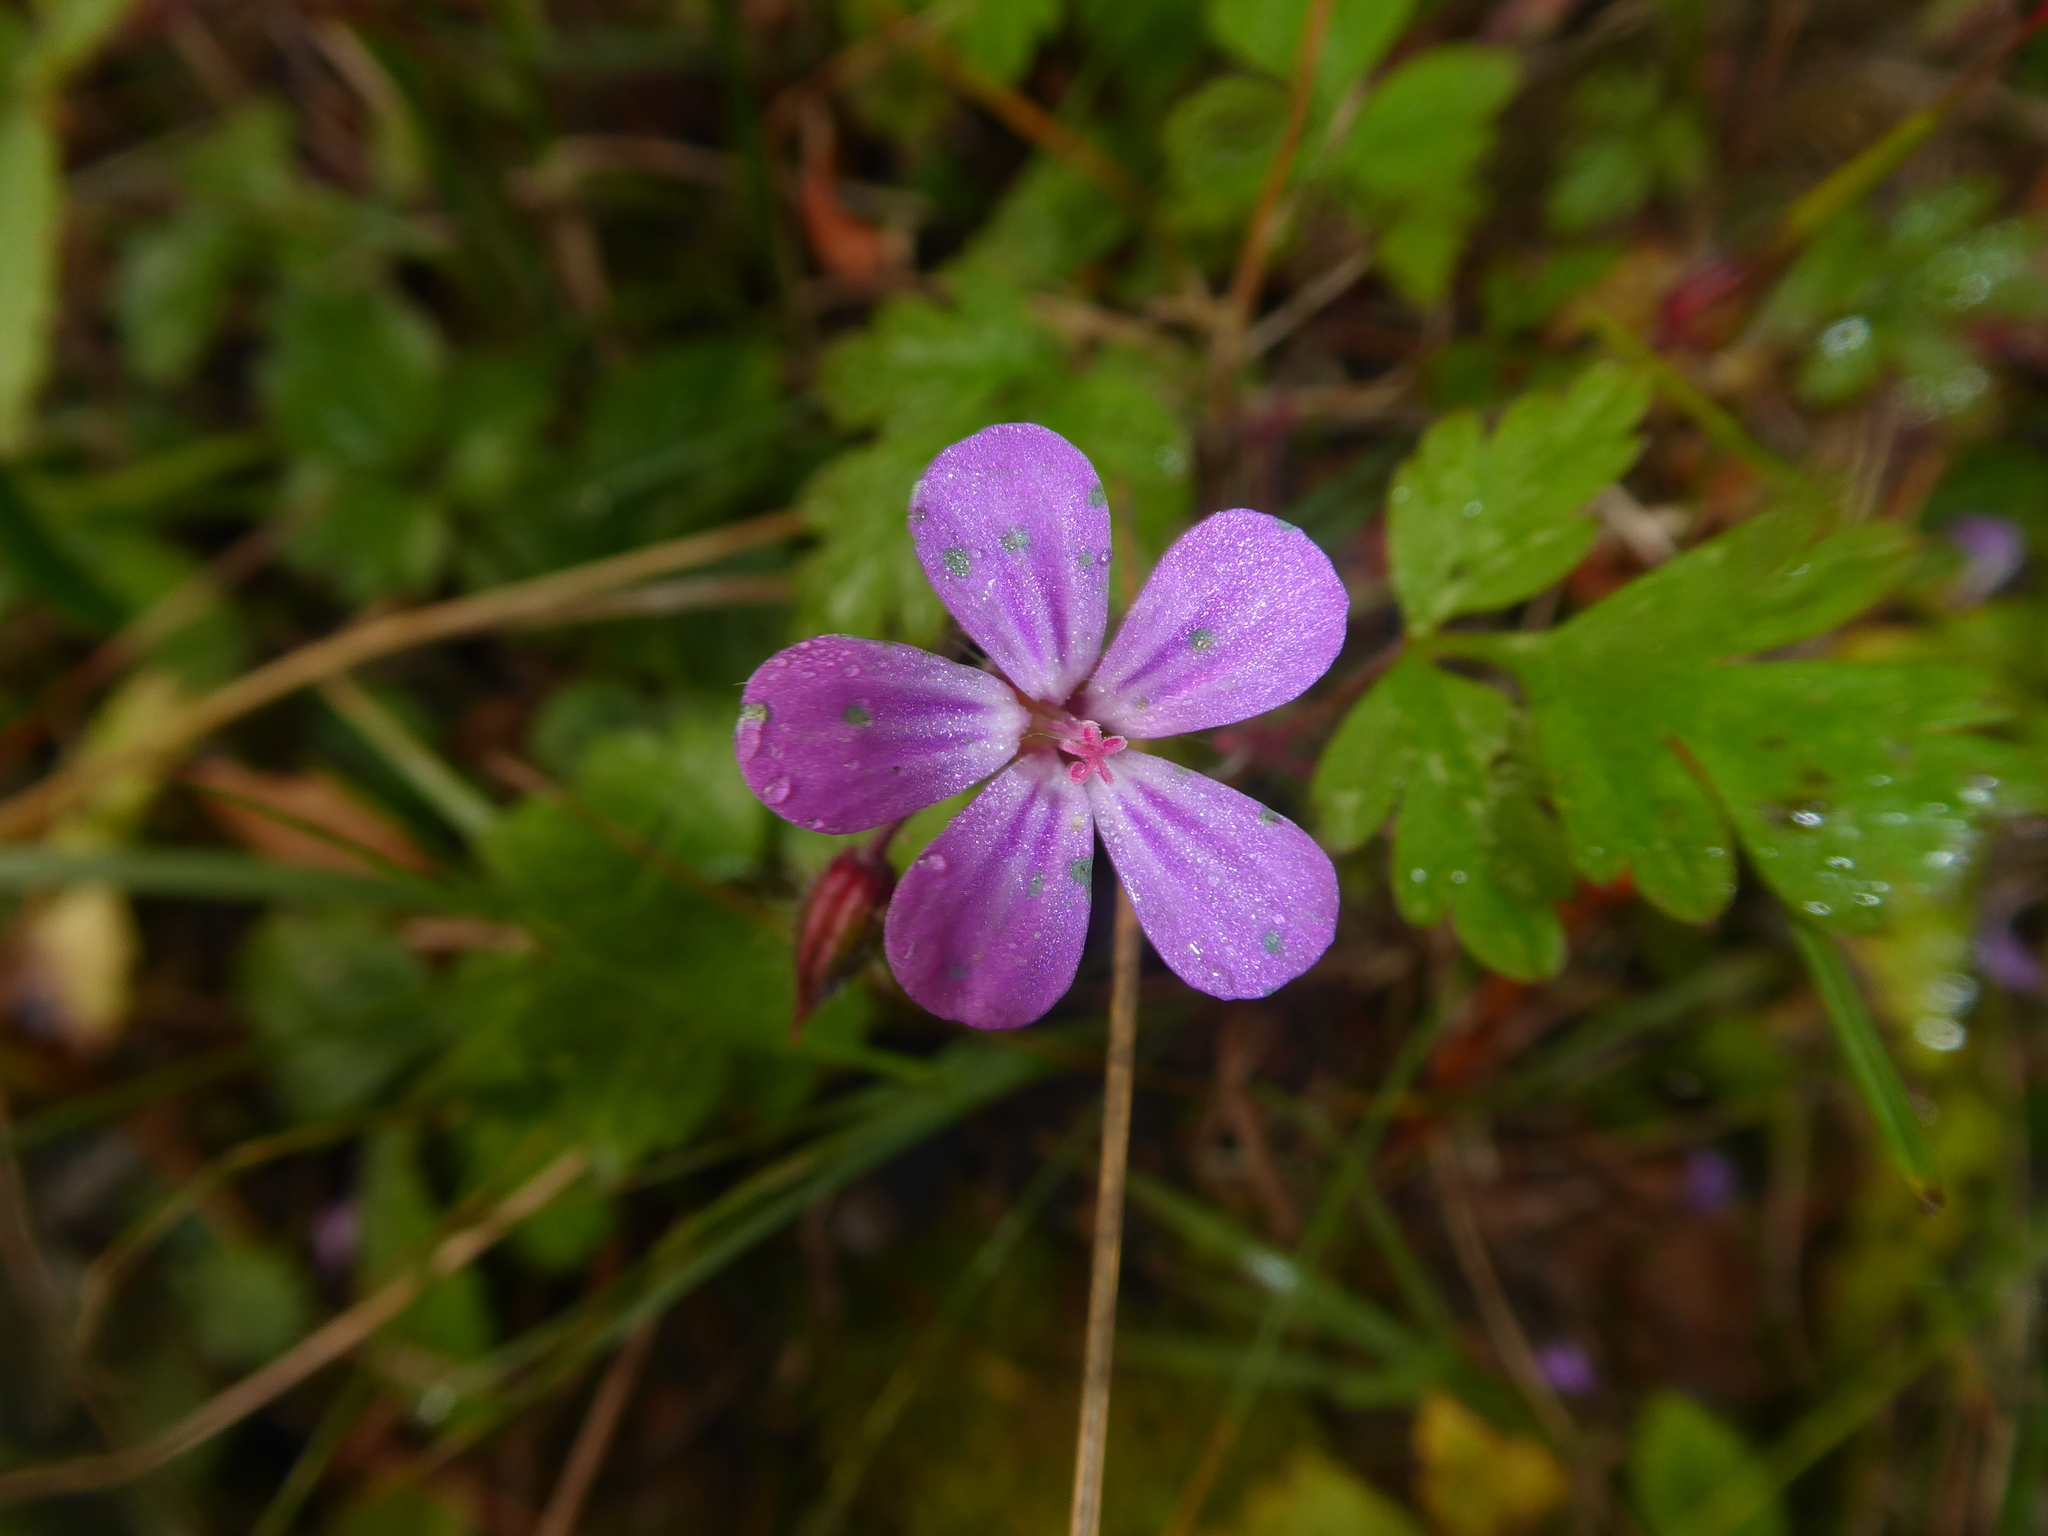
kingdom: Plantae
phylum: Tracheophyta
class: Magnoliopsida
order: Geraniales
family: Geraniaceae
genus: Geranium
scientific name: Geranium robertianum
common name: Herb-robert
